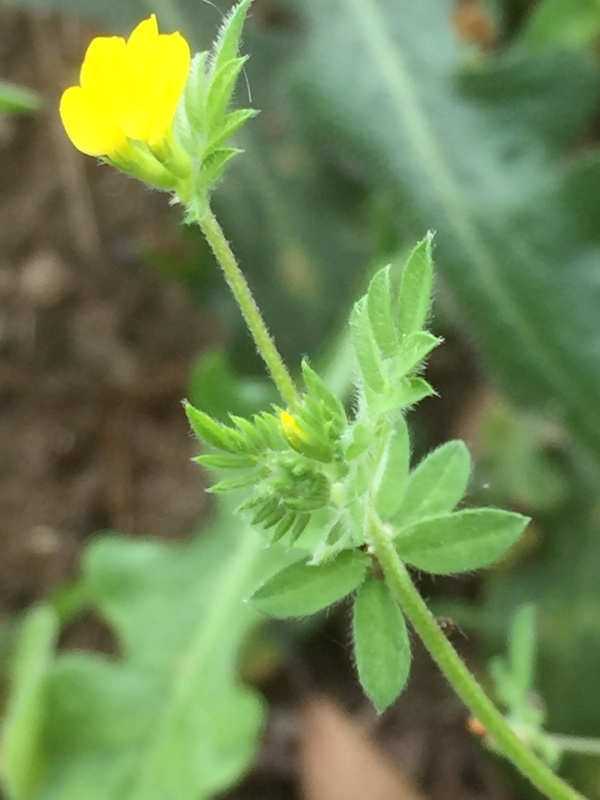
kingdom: Plantae
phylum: Tracheophyta
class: Magnoliopsida
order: Fabales
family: Fabaceae
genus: Ornithopus
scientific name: Ornithopus compressus
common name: Yellow serradella
